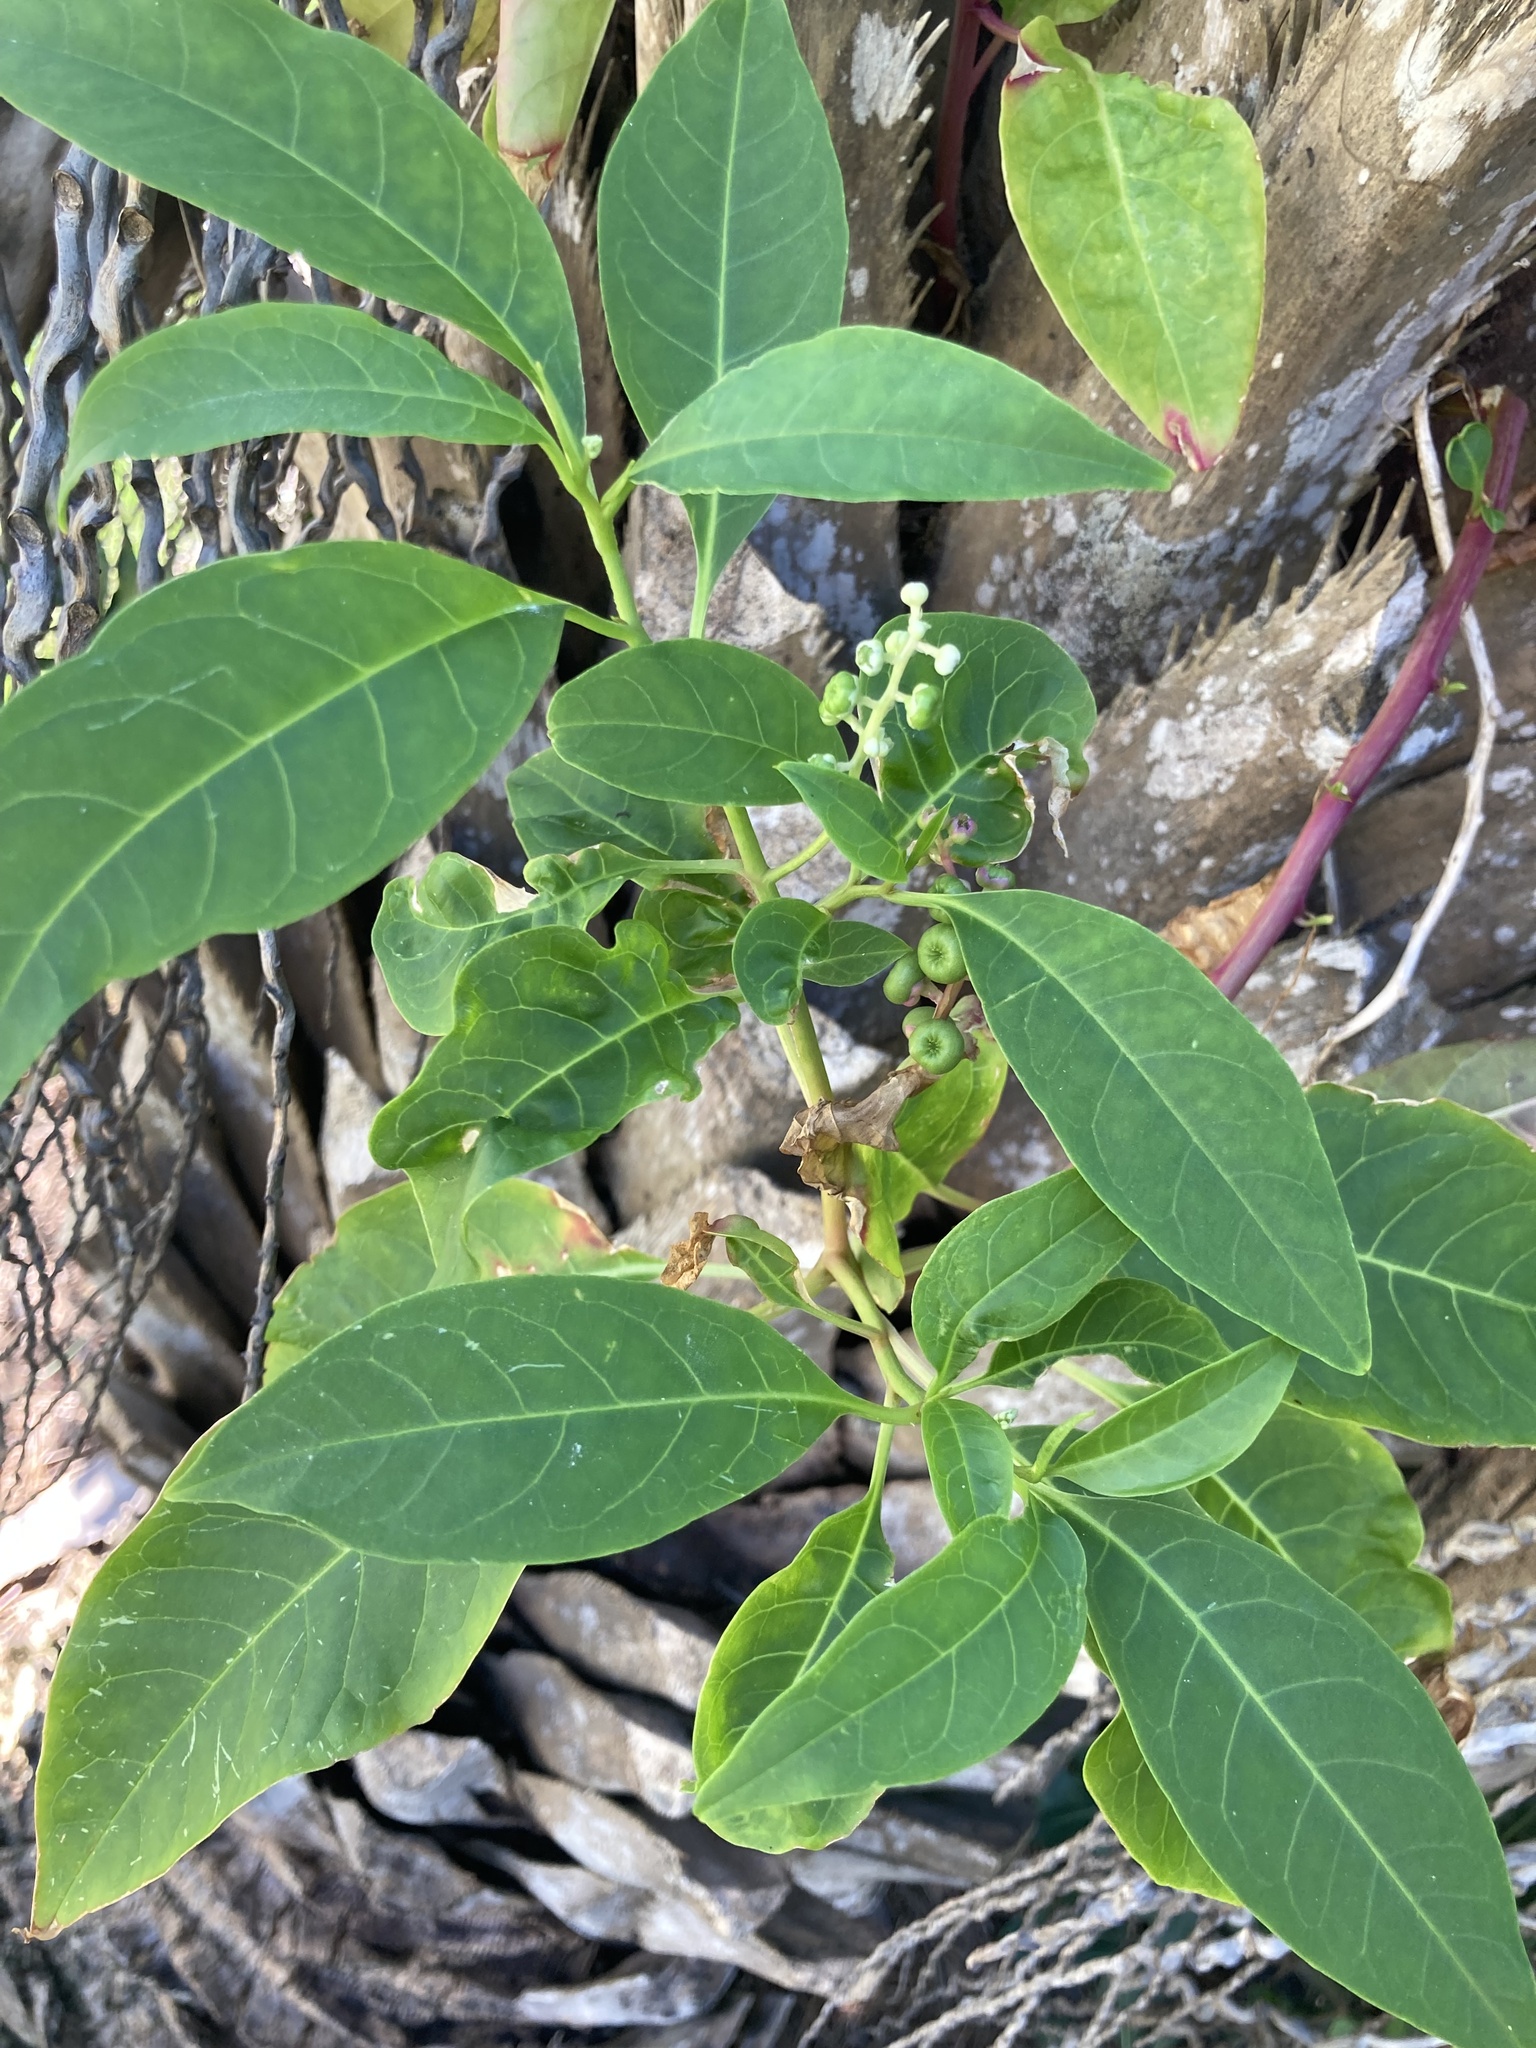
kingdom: Plantae
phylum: Tracheophyta
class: Magnoliopsida
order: Caryophyllales
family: Phytolaccaceae
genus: Phytolacca
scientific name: Phytolacca americana
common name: American pokeweed
